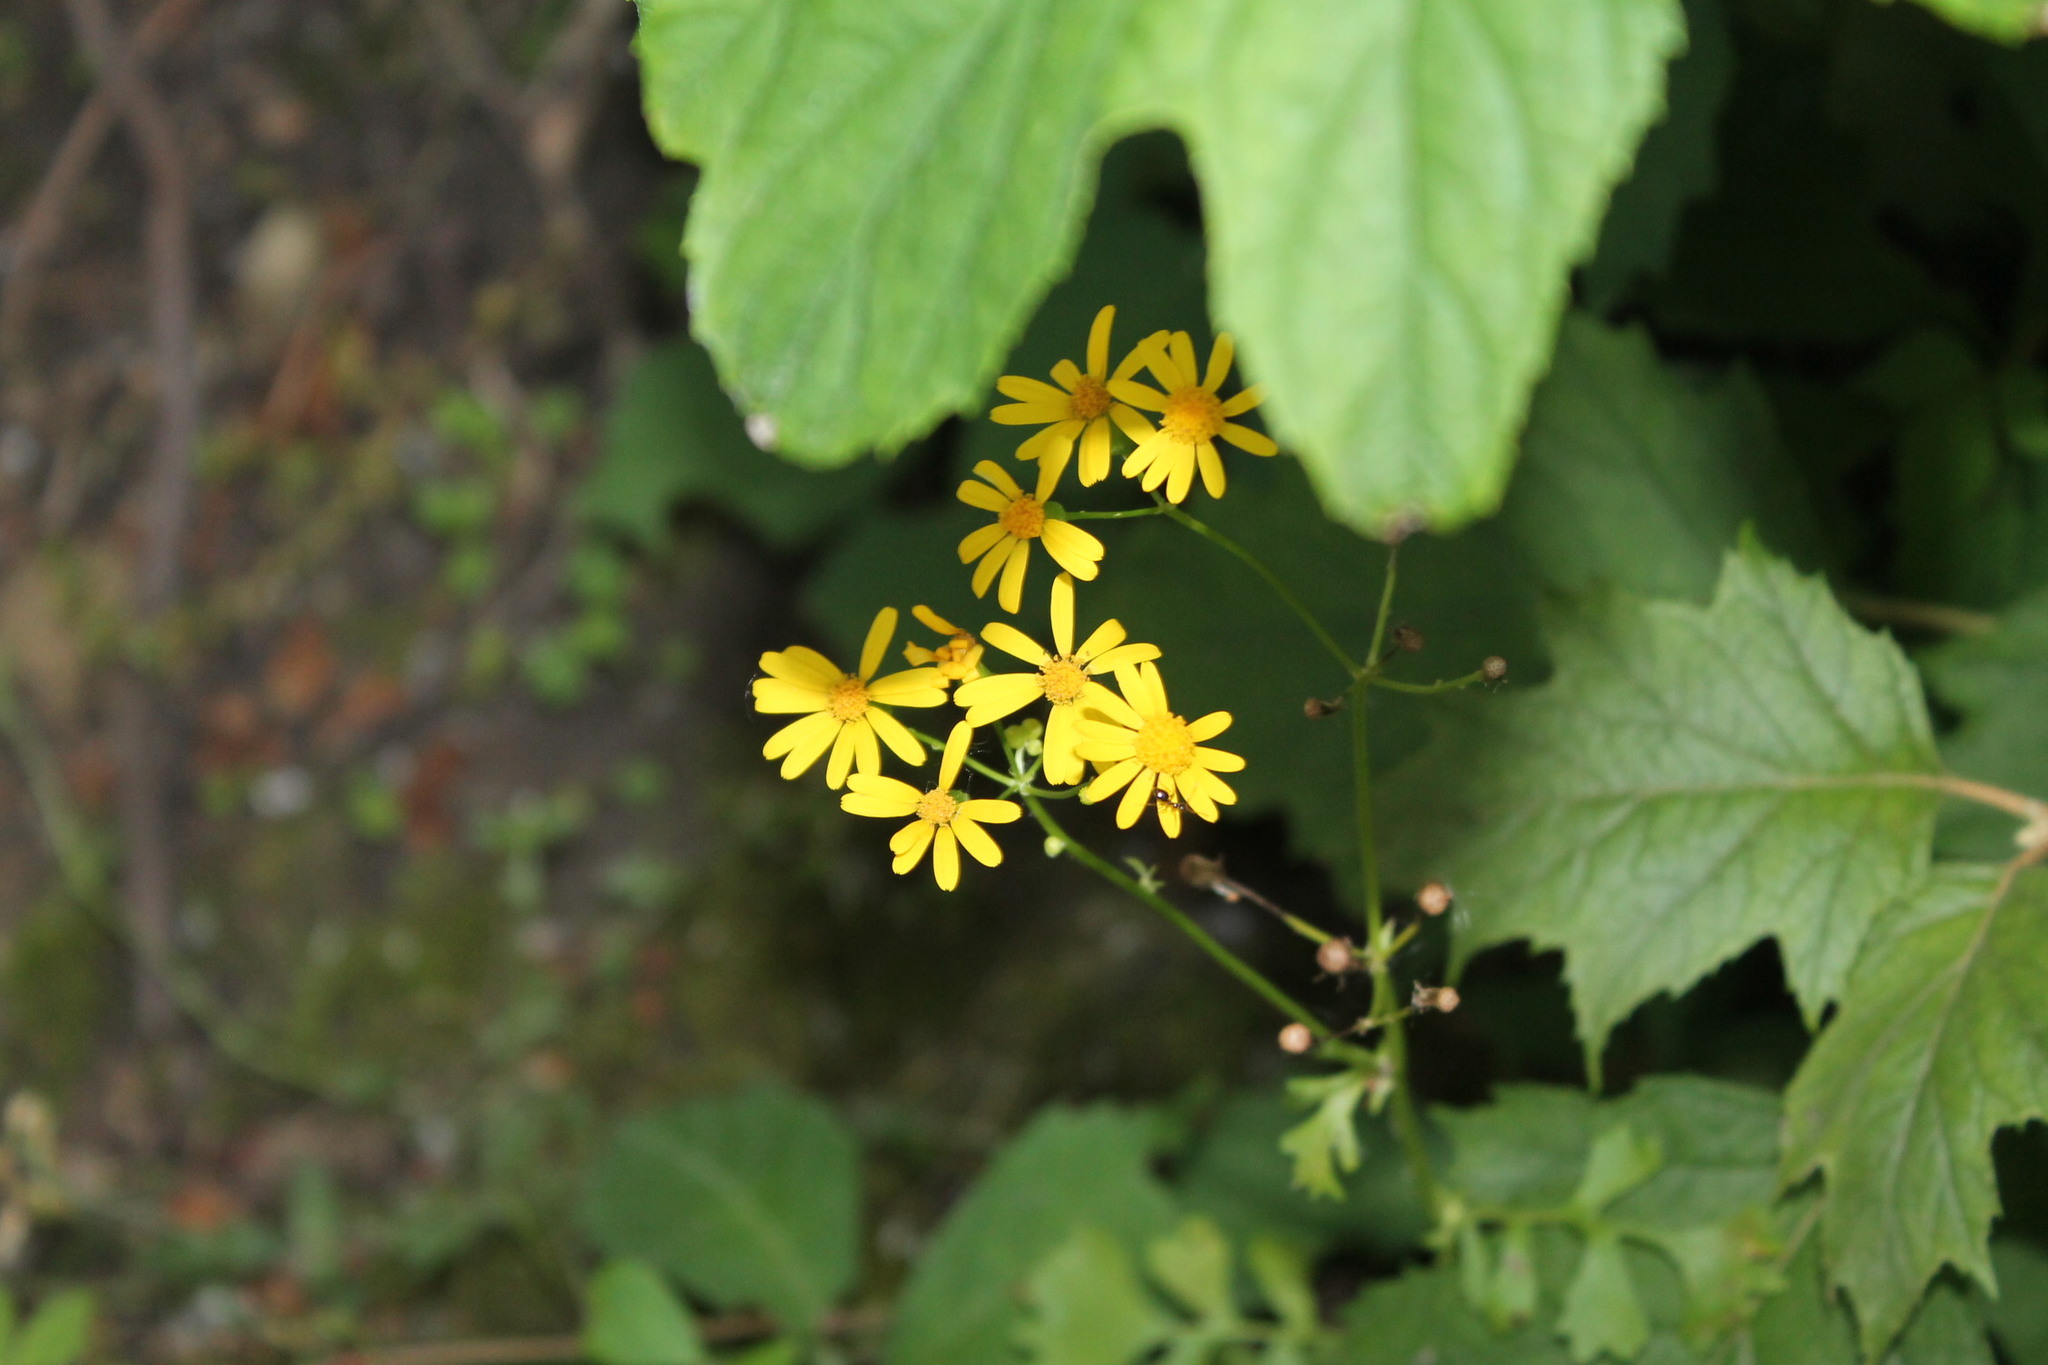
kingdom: Plantae
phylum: Tracheophyta
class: Magnoliopsida
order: Asterales
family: Asteraceae
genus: Packera
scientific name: Packera glabella
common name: Butterweed
